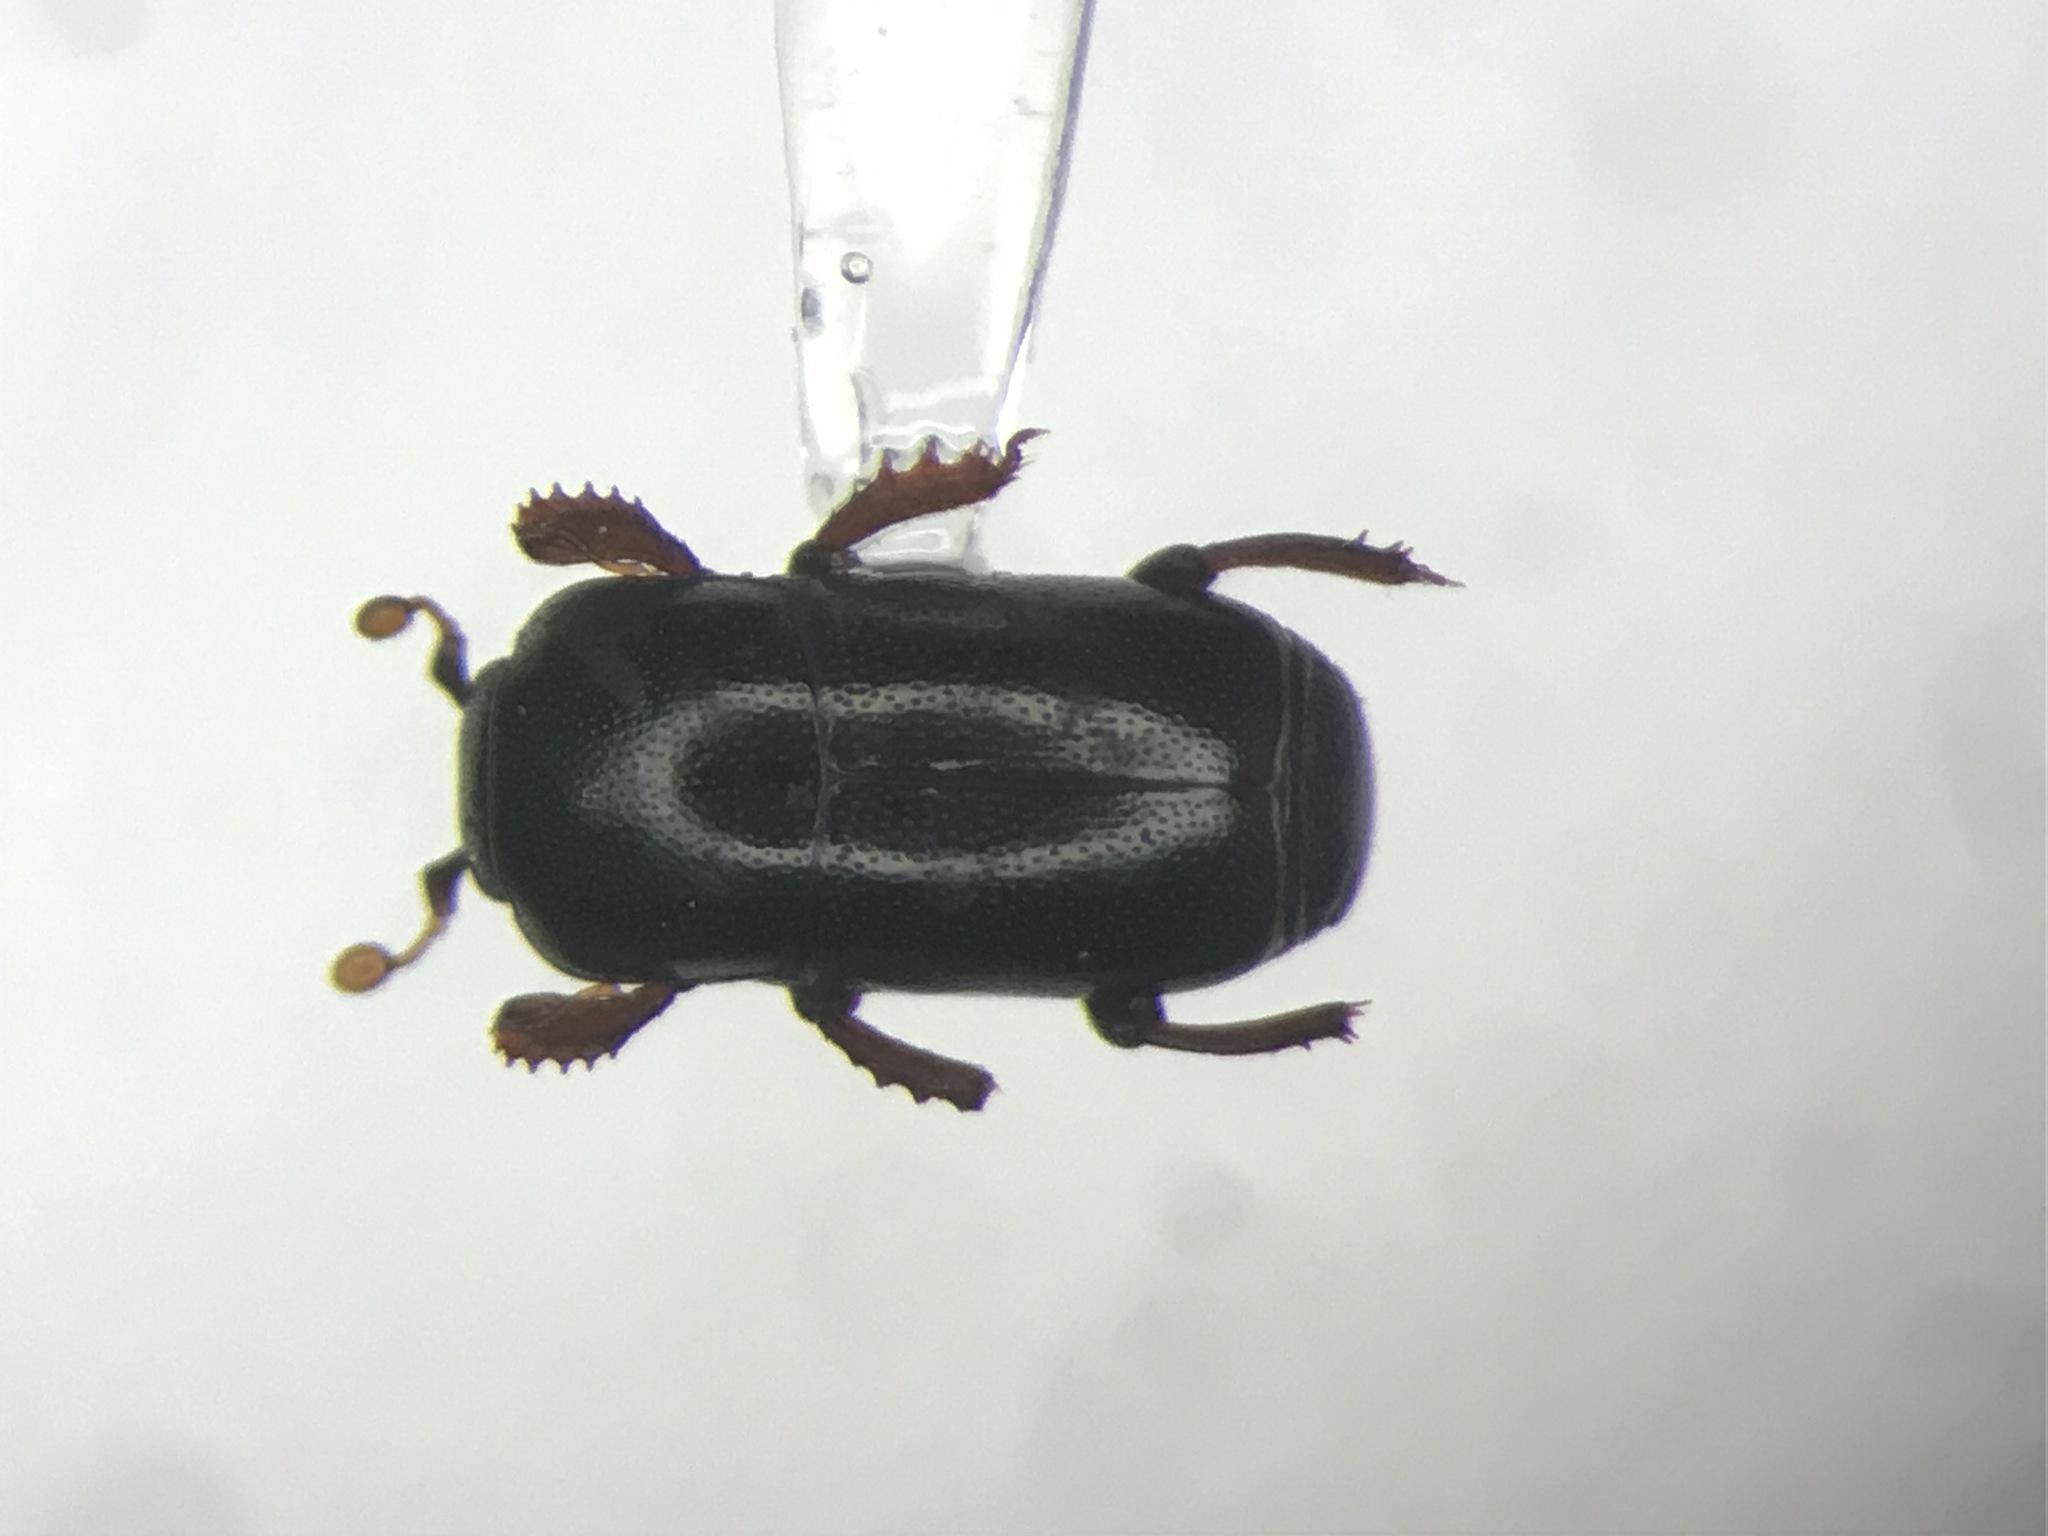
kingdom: Animalia
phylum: Arthropoda
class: Insecta
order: Coleoptera
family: Histeridae
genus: Aymericetrius
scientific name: Aymericetrius latebricola
